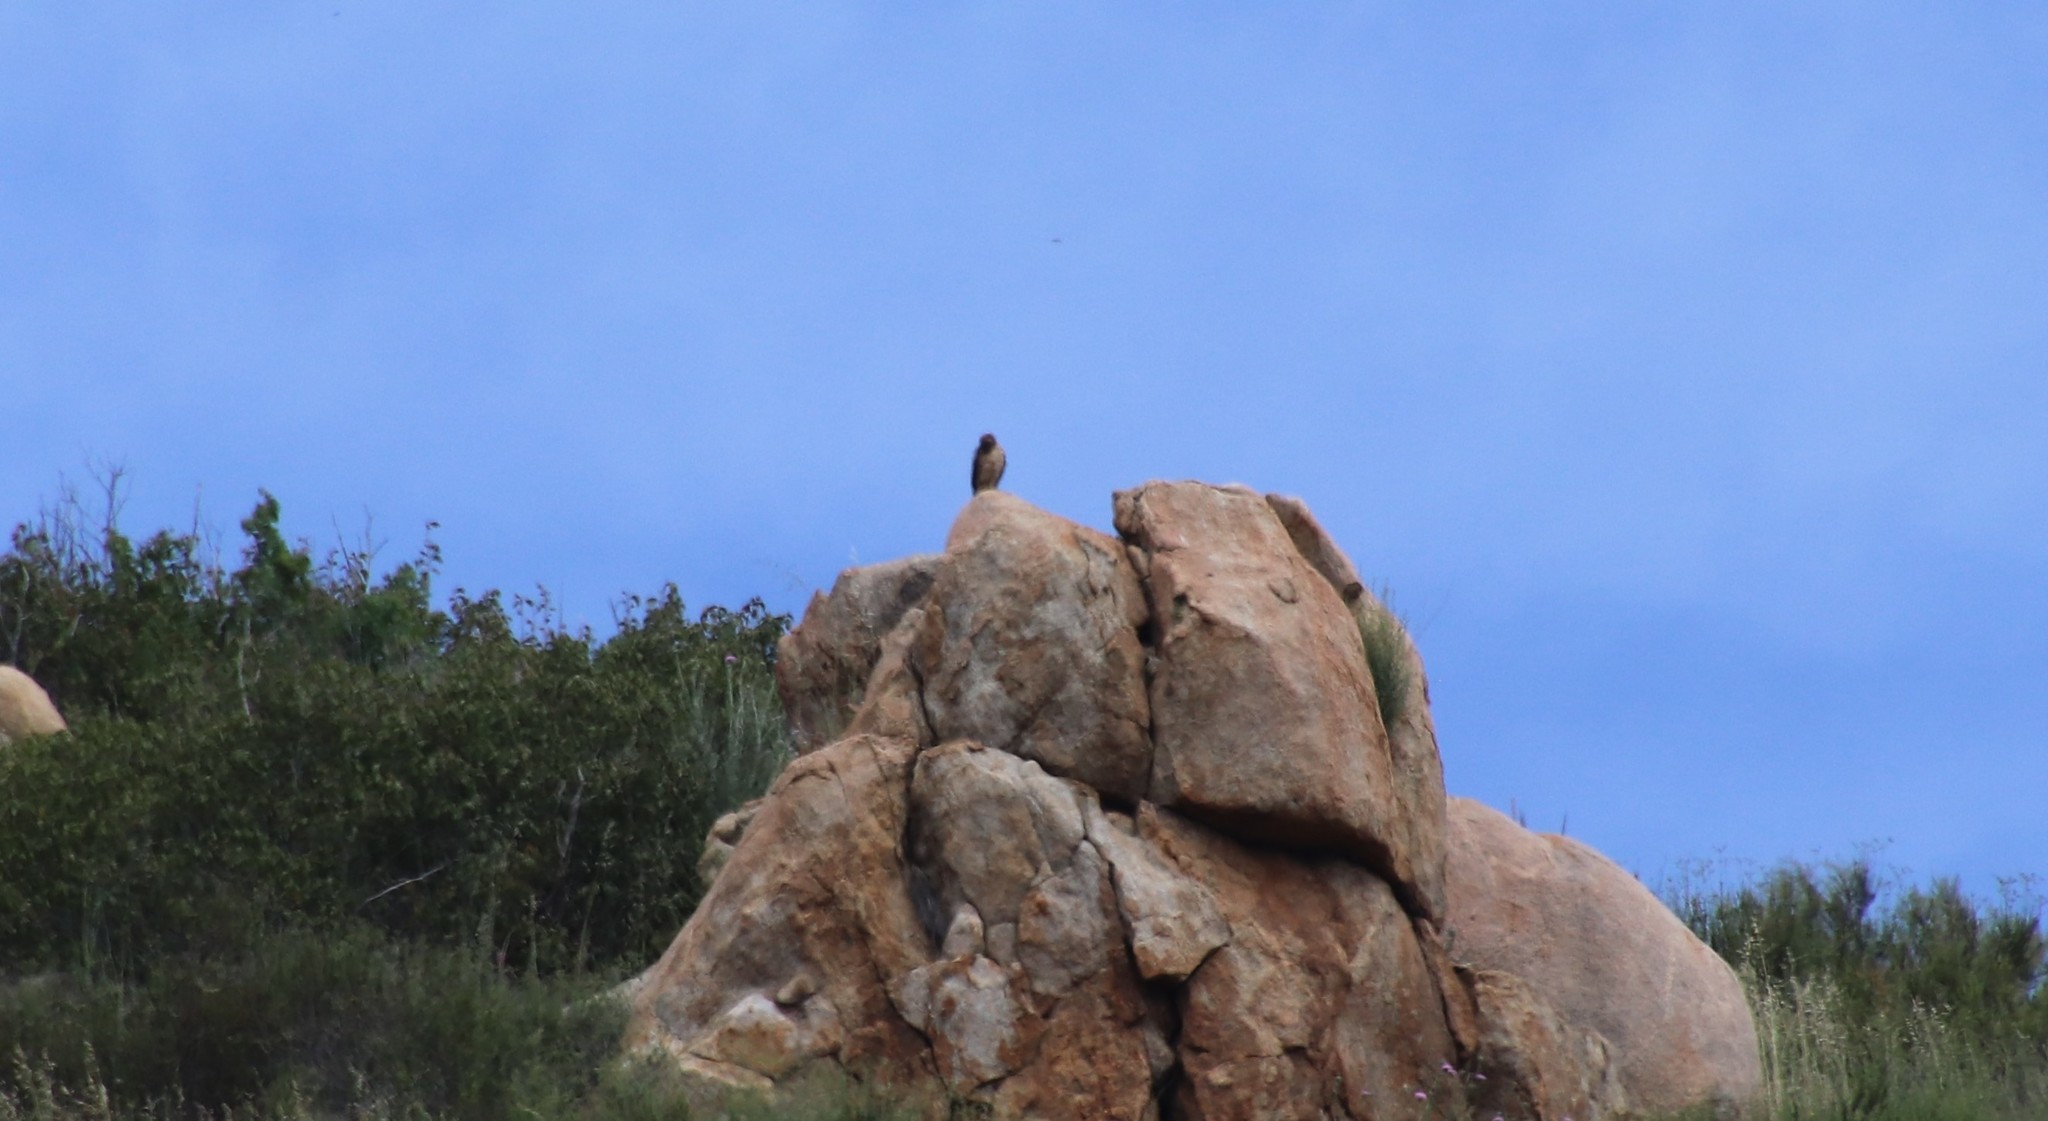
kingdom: Animalia
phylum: Chordata
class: Aves
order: Accipitriformes
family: Accipitridae
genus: Buteo
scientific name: Buteo jamaicensis
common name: Red-tailed hawk
